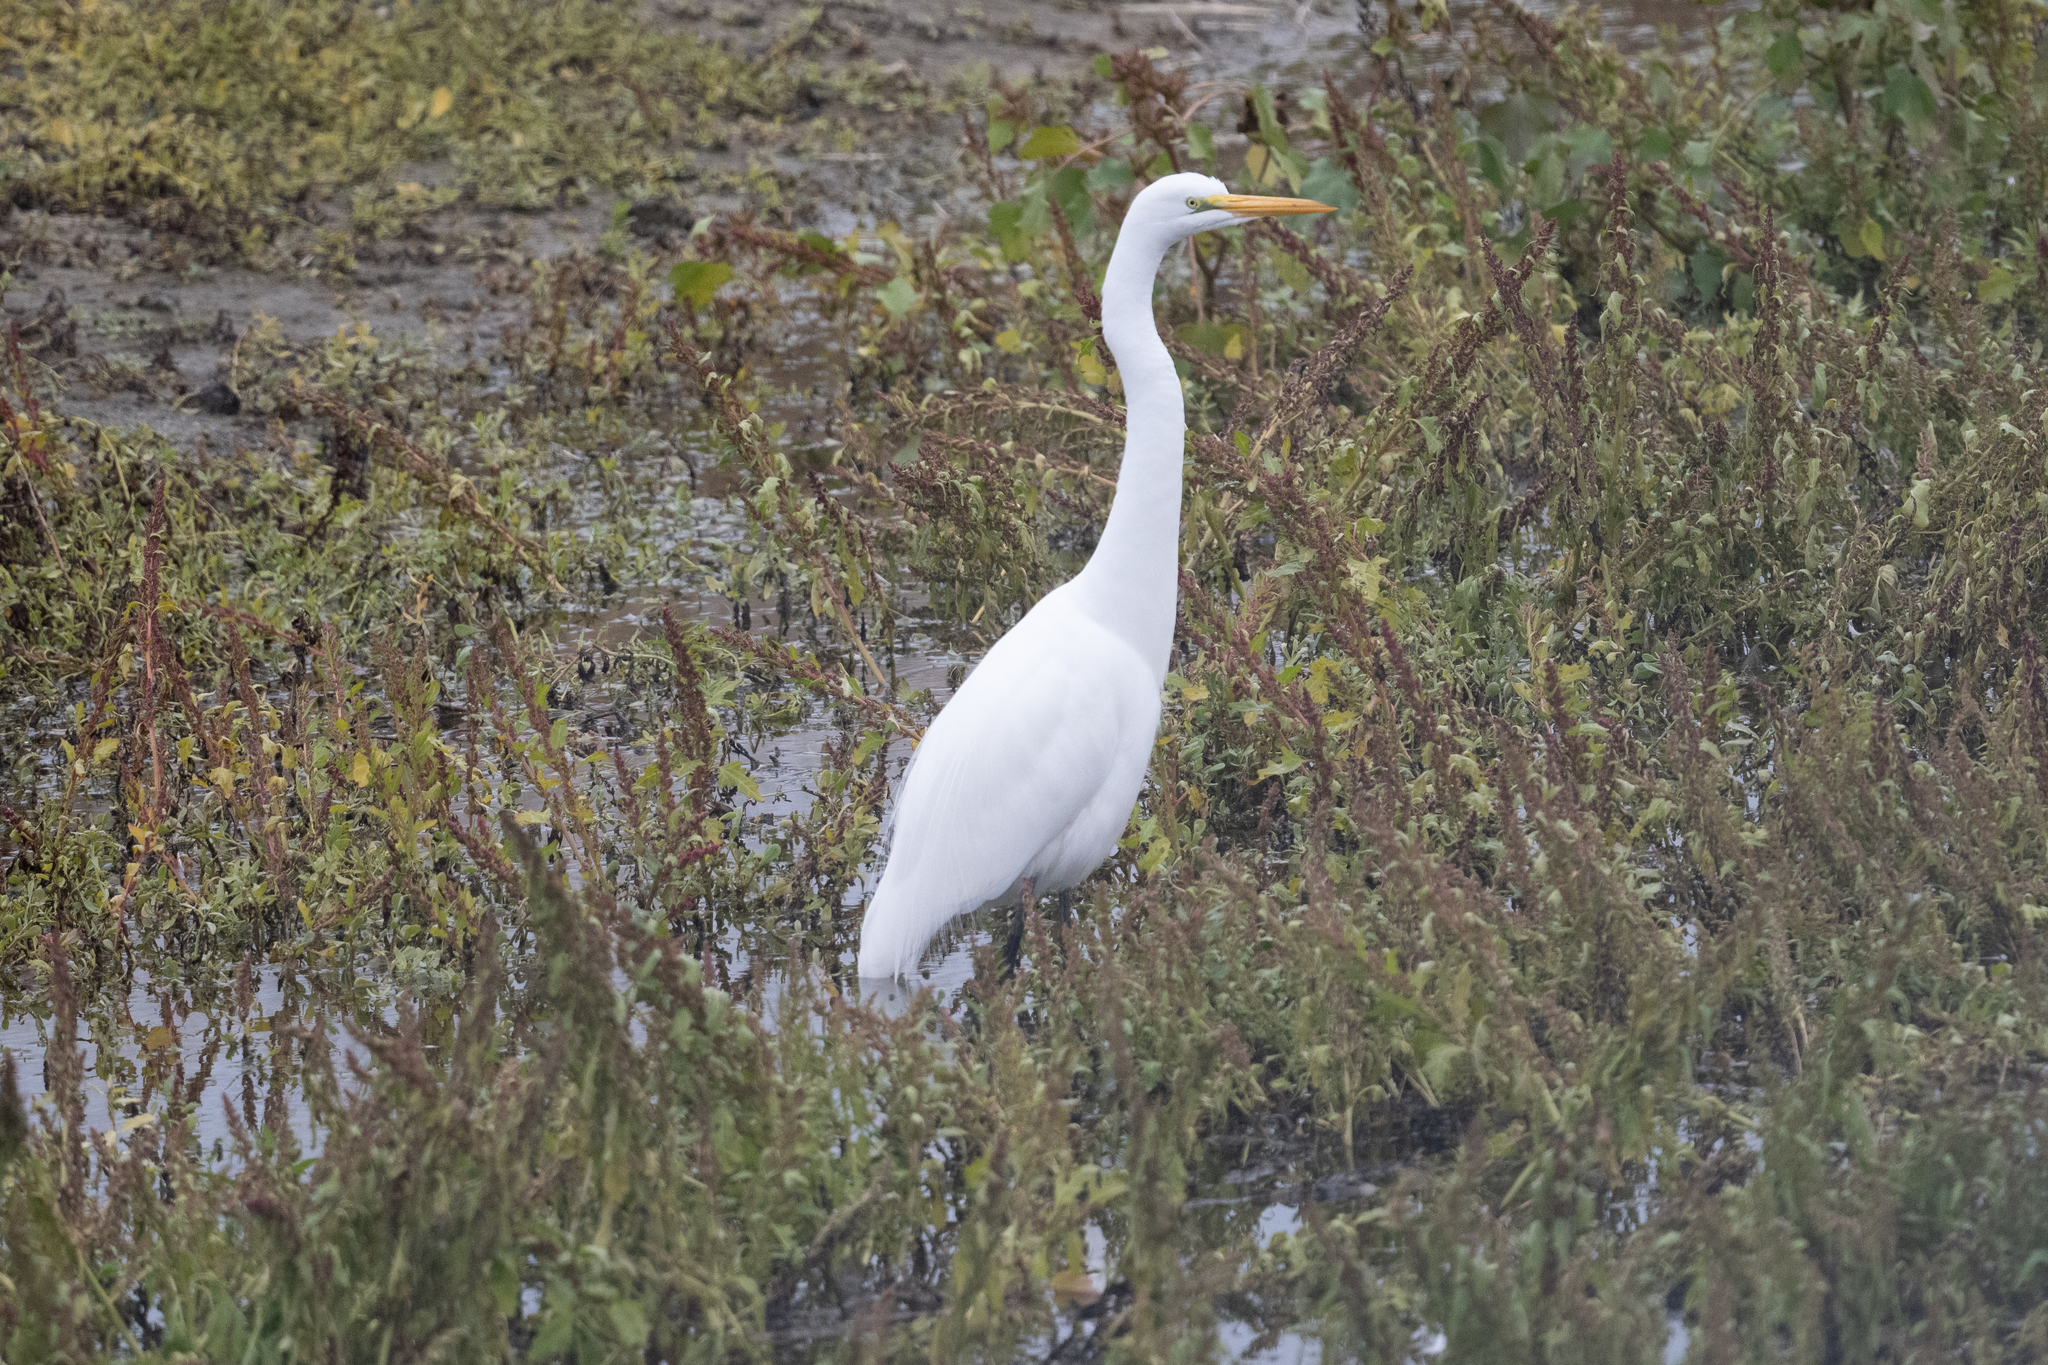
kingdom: Animalia
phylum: Chordata
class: Aves
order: Pelecaniformes
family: Ardeidae
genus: Ardea
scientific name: Ardea alba
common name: Great egret
